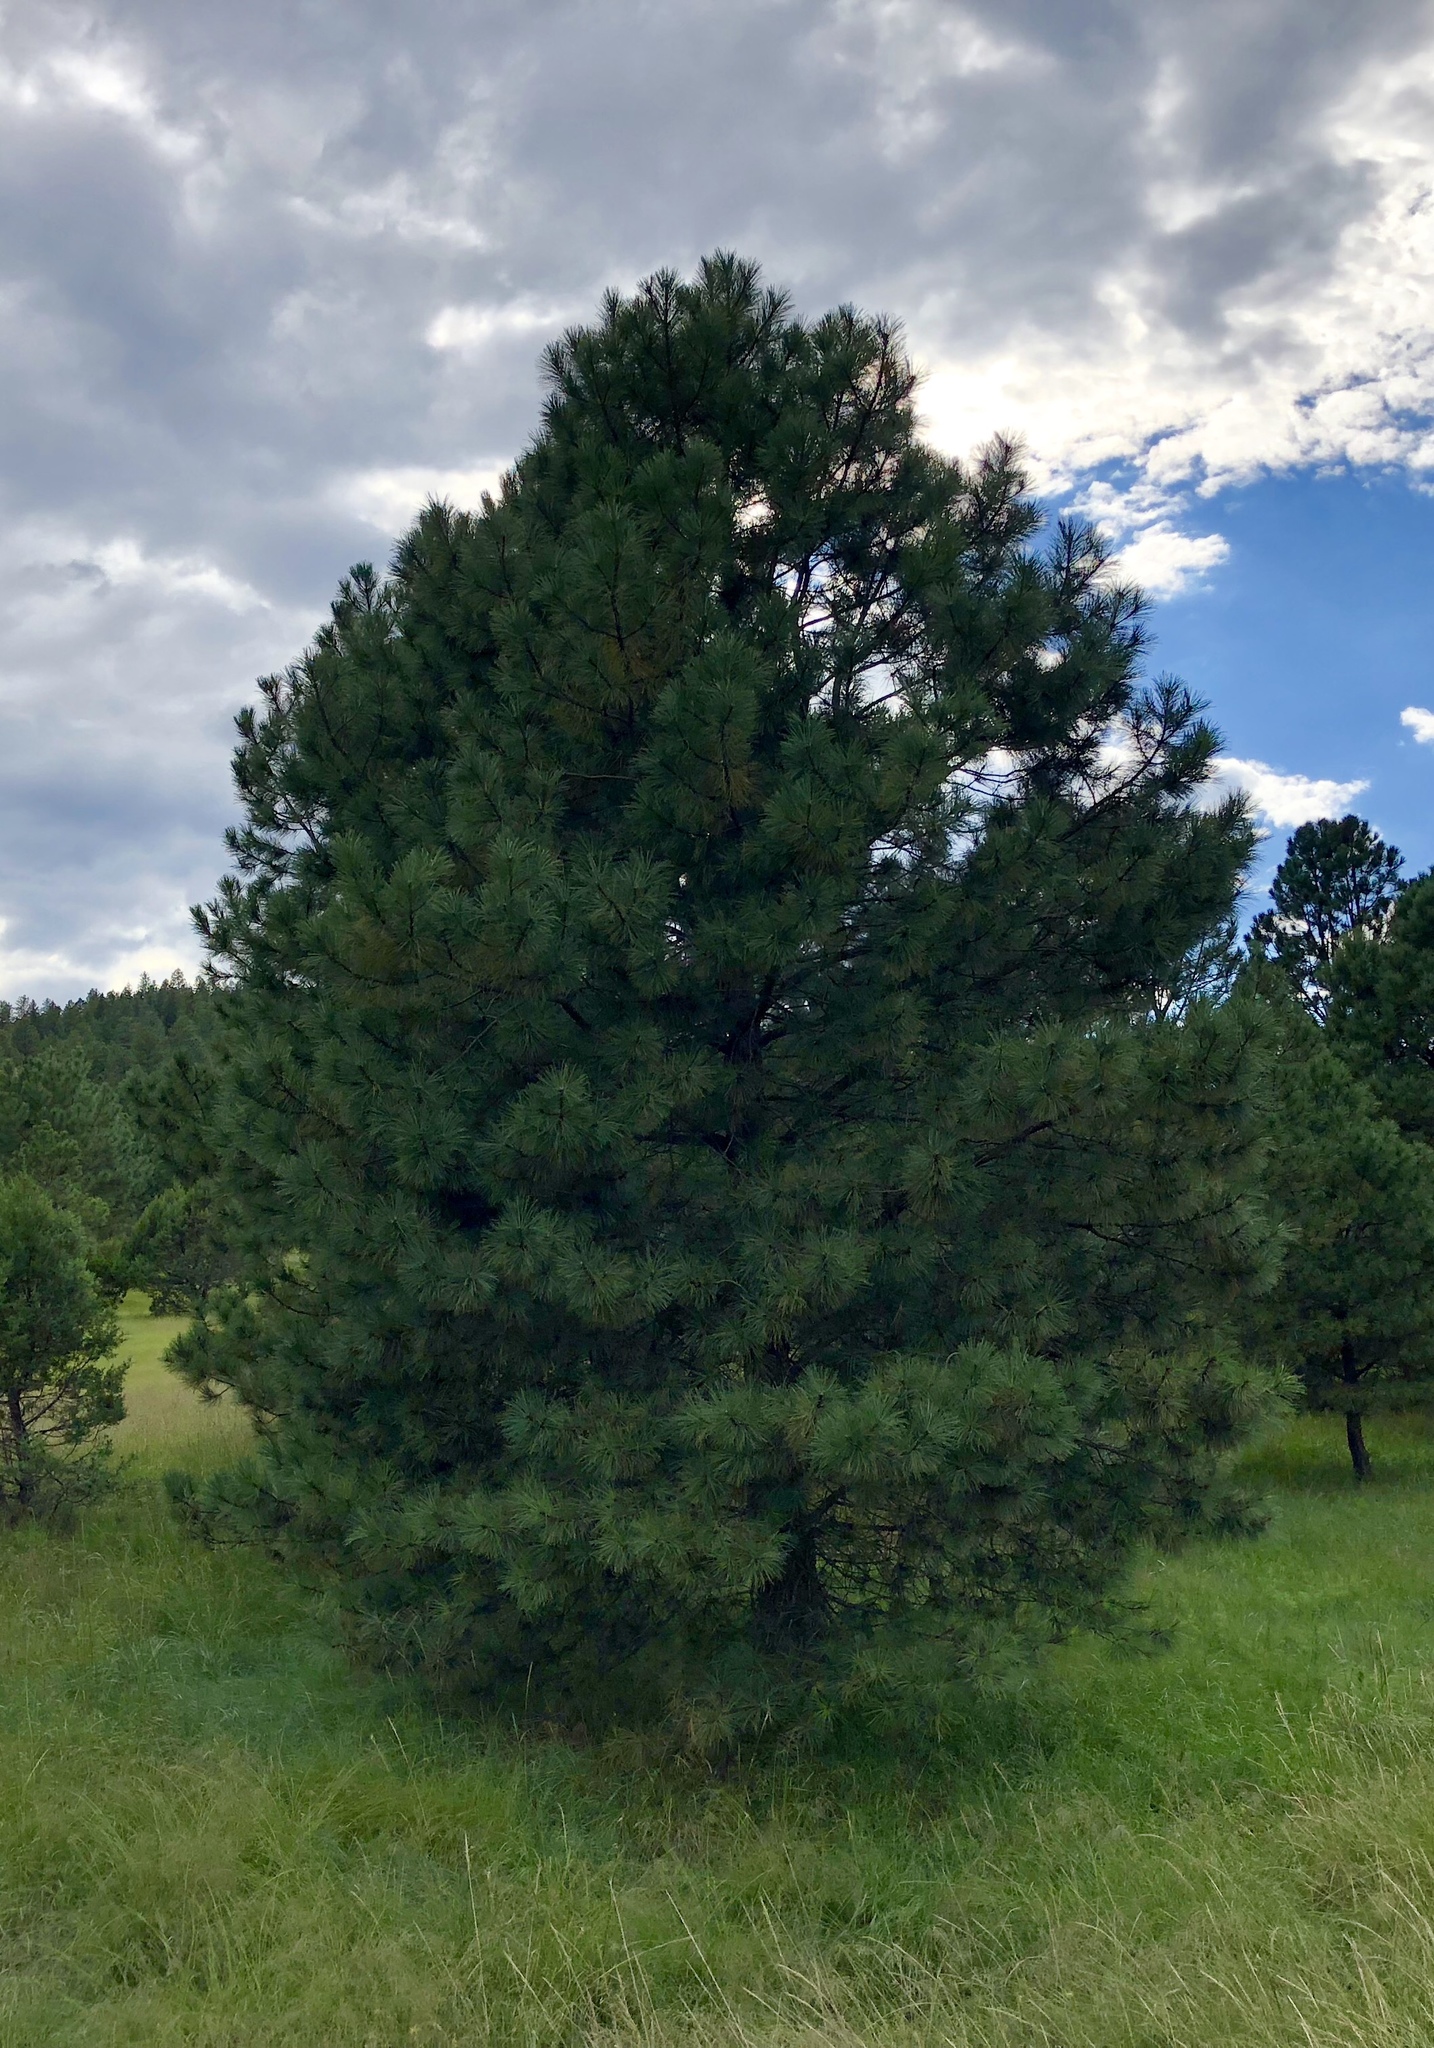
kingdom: Plantae
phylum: Tracheophyta
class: Pinopsida
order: Pinales
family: Pinaceae
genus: Pinus
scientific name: Pinus ponderosa
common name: Western yellow-pine
